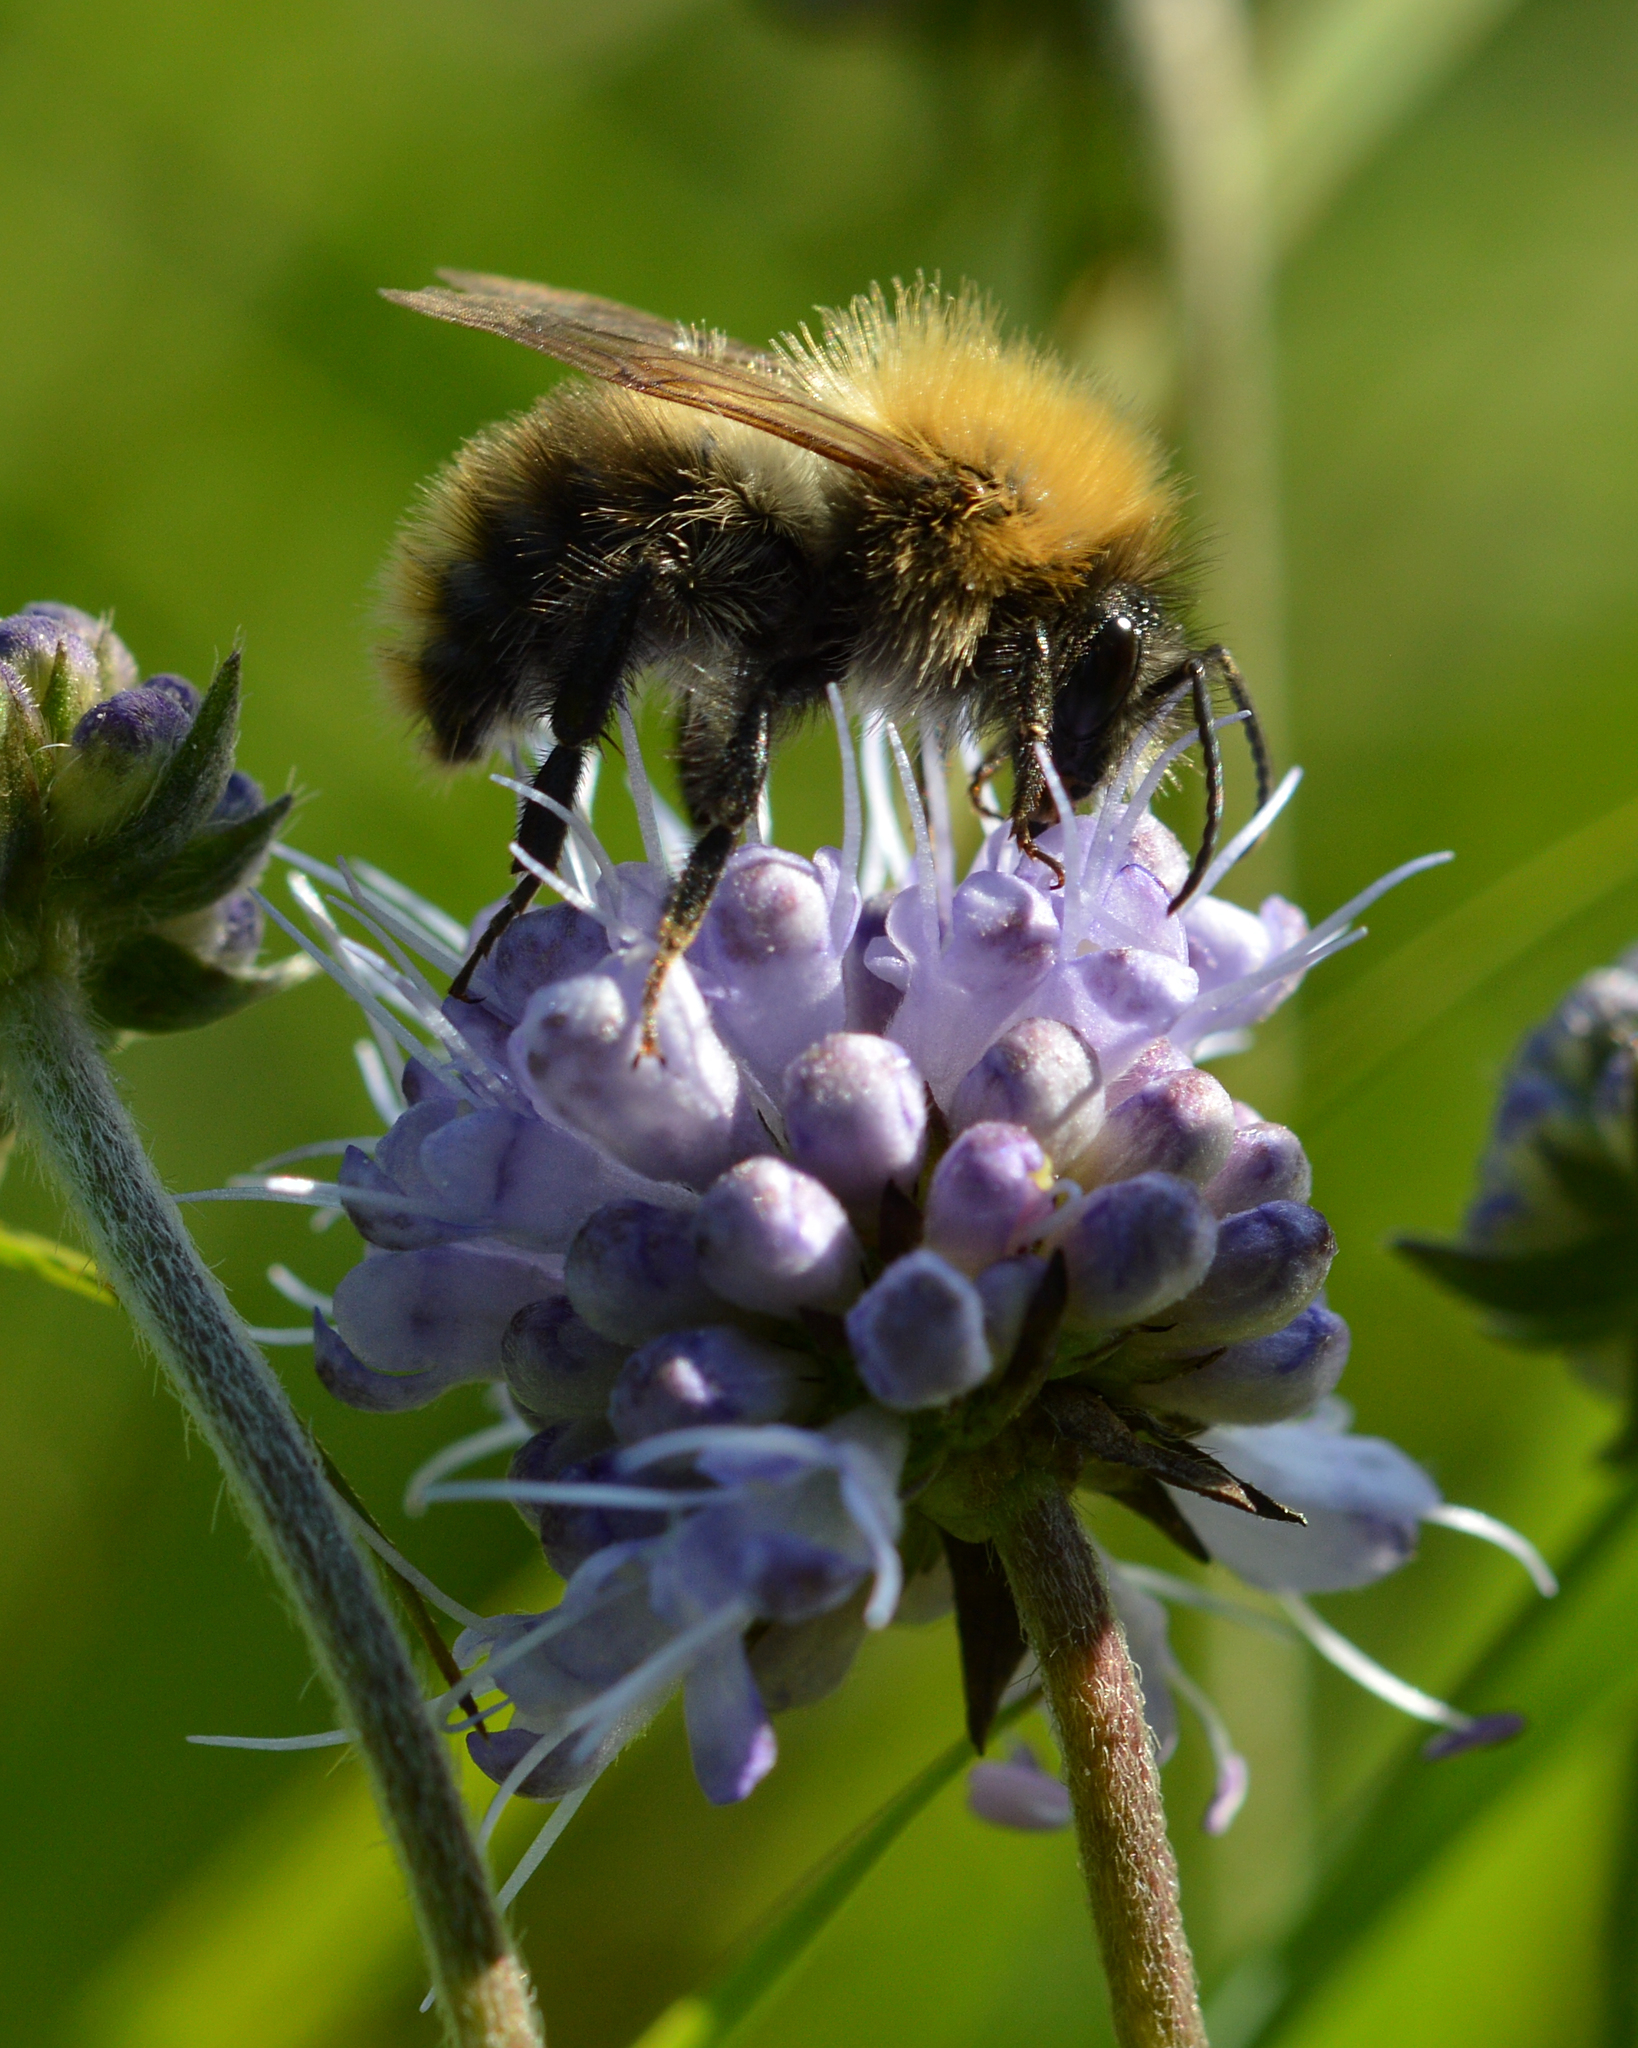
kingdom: Animalia
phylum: Arthropoda
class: Insecta
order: Hymenoptera
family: Apidae
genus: Bombus
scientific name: Bombus pascuorum
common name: Common carder bee
